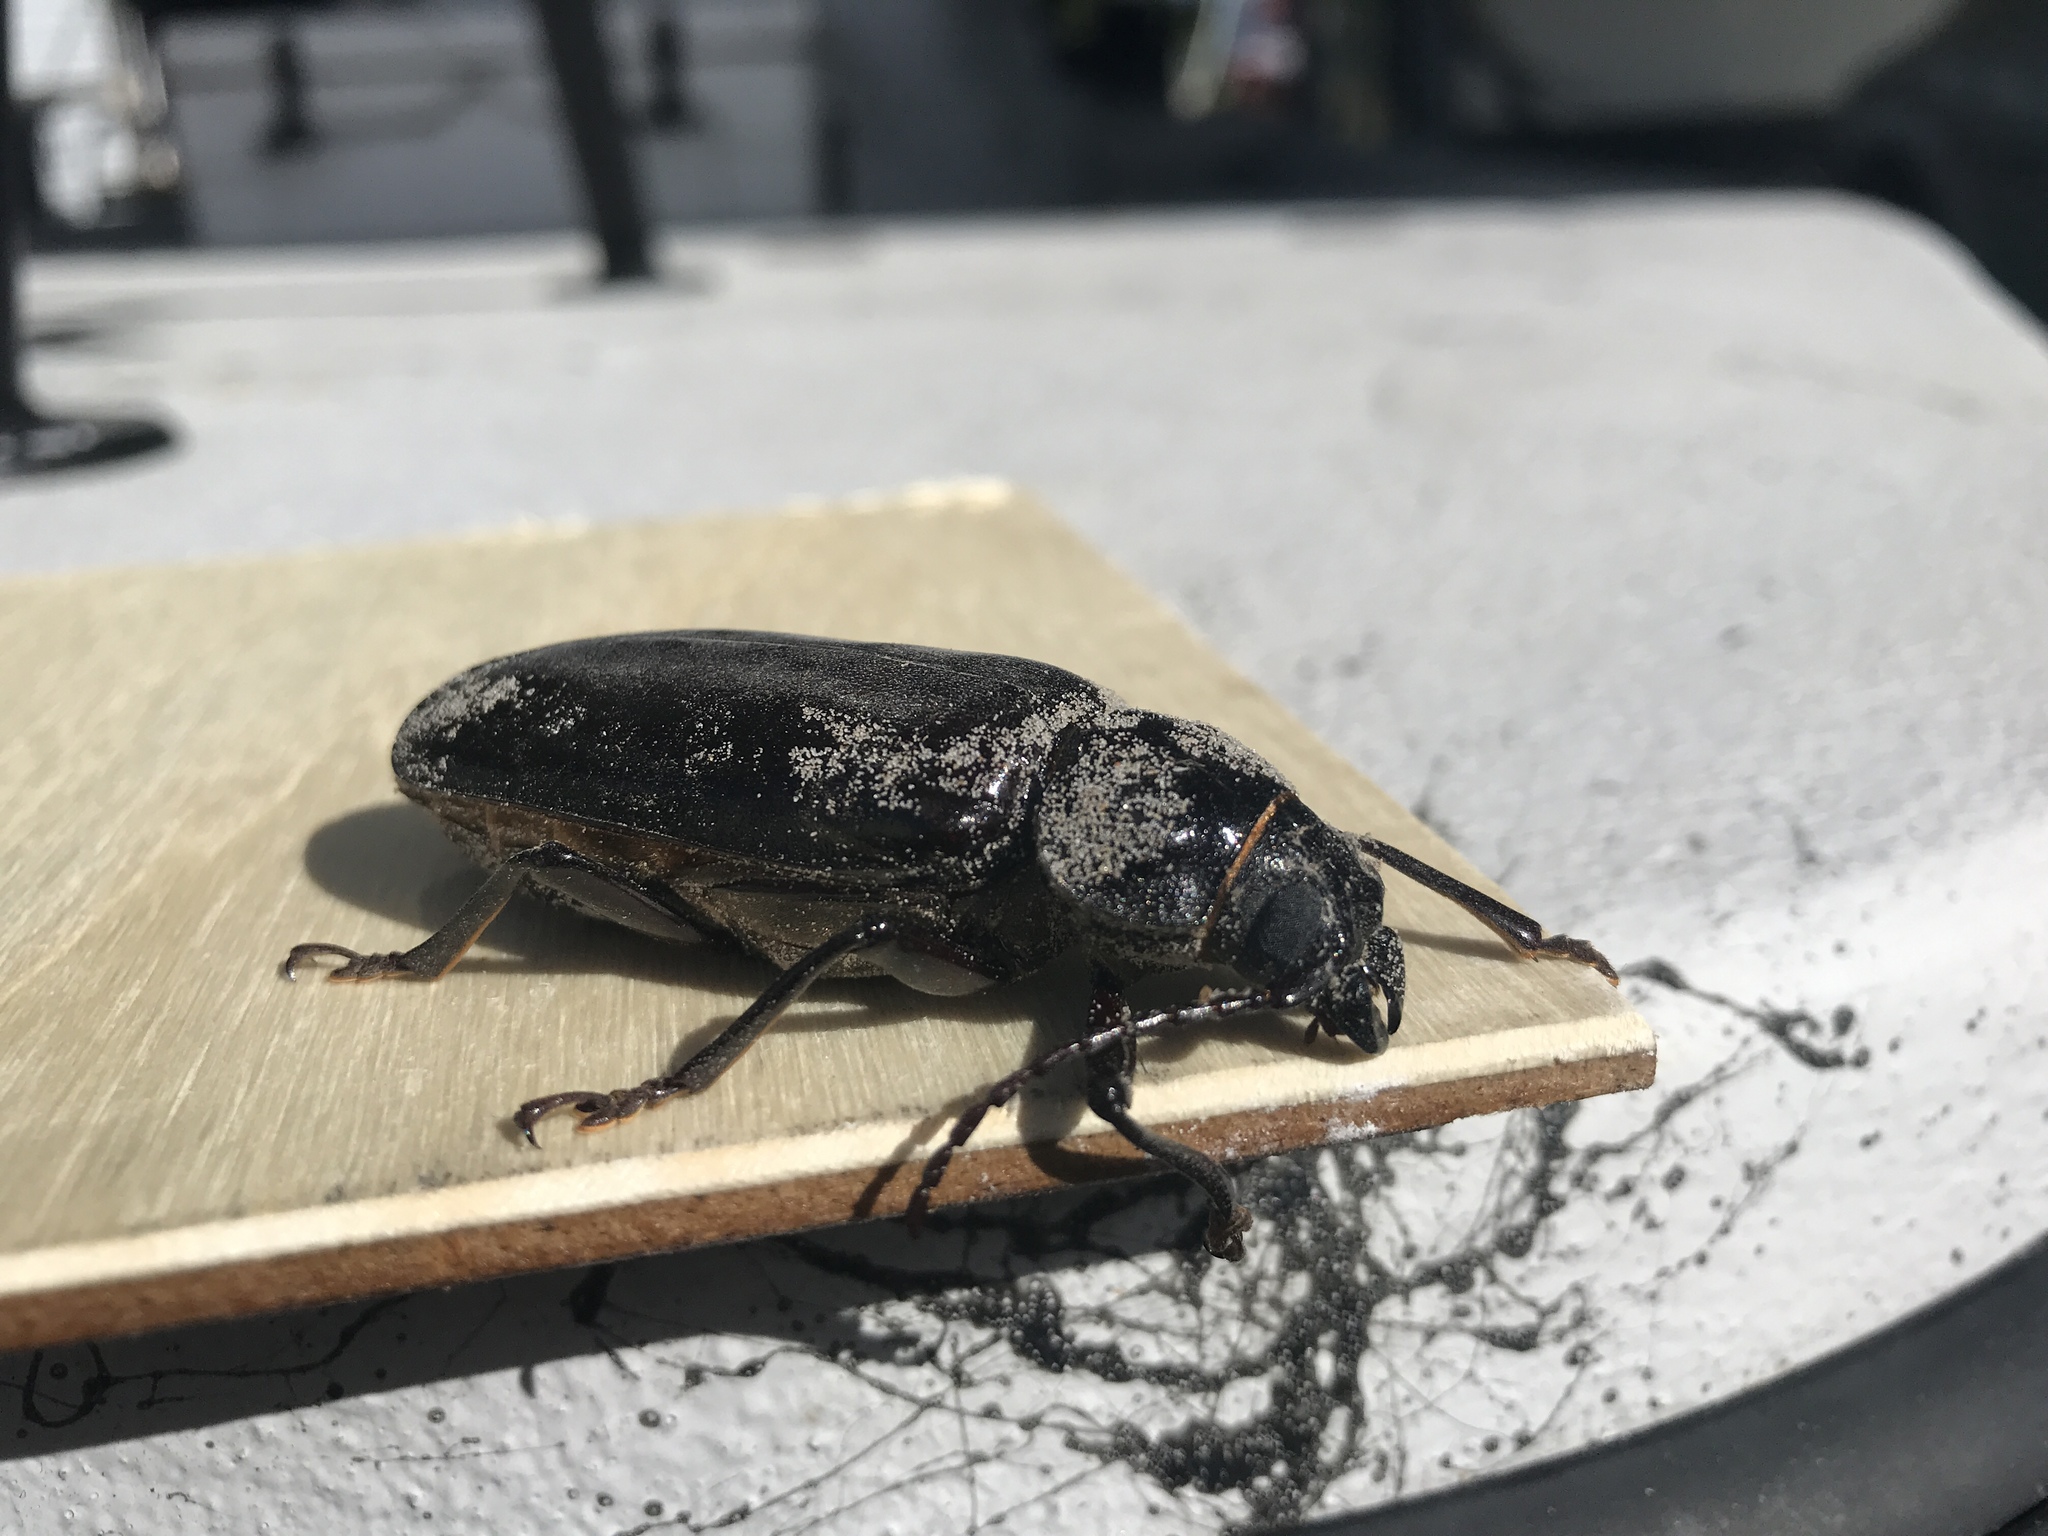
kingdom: Animalia
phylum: Arthropoda
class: Insecta
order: Coleoptera
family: Cerambycidae
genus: Archodontes
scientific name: Archodontes melanopus
